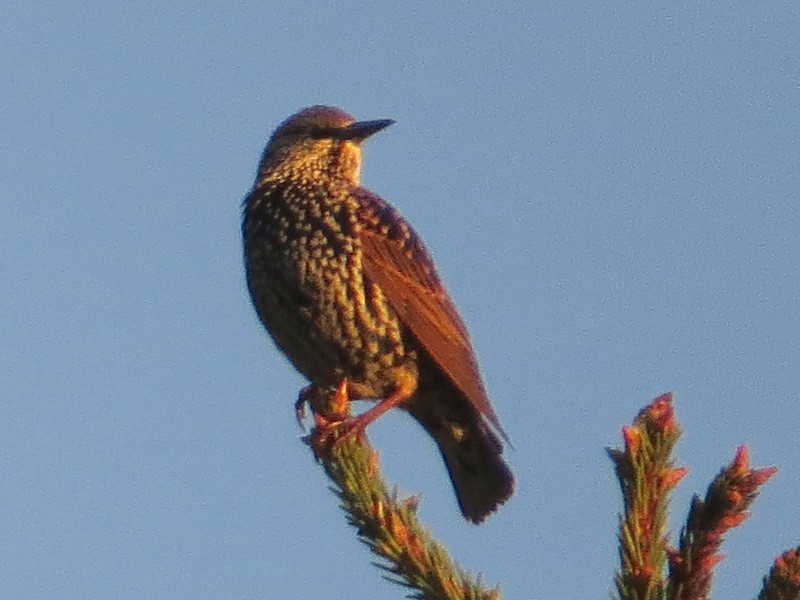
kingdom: Animalia
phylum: Chordata
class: Aves
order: Passeriformes
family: Sturnidae
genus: Sturnus
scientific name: Sturnus vulgaris
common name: Common starling
